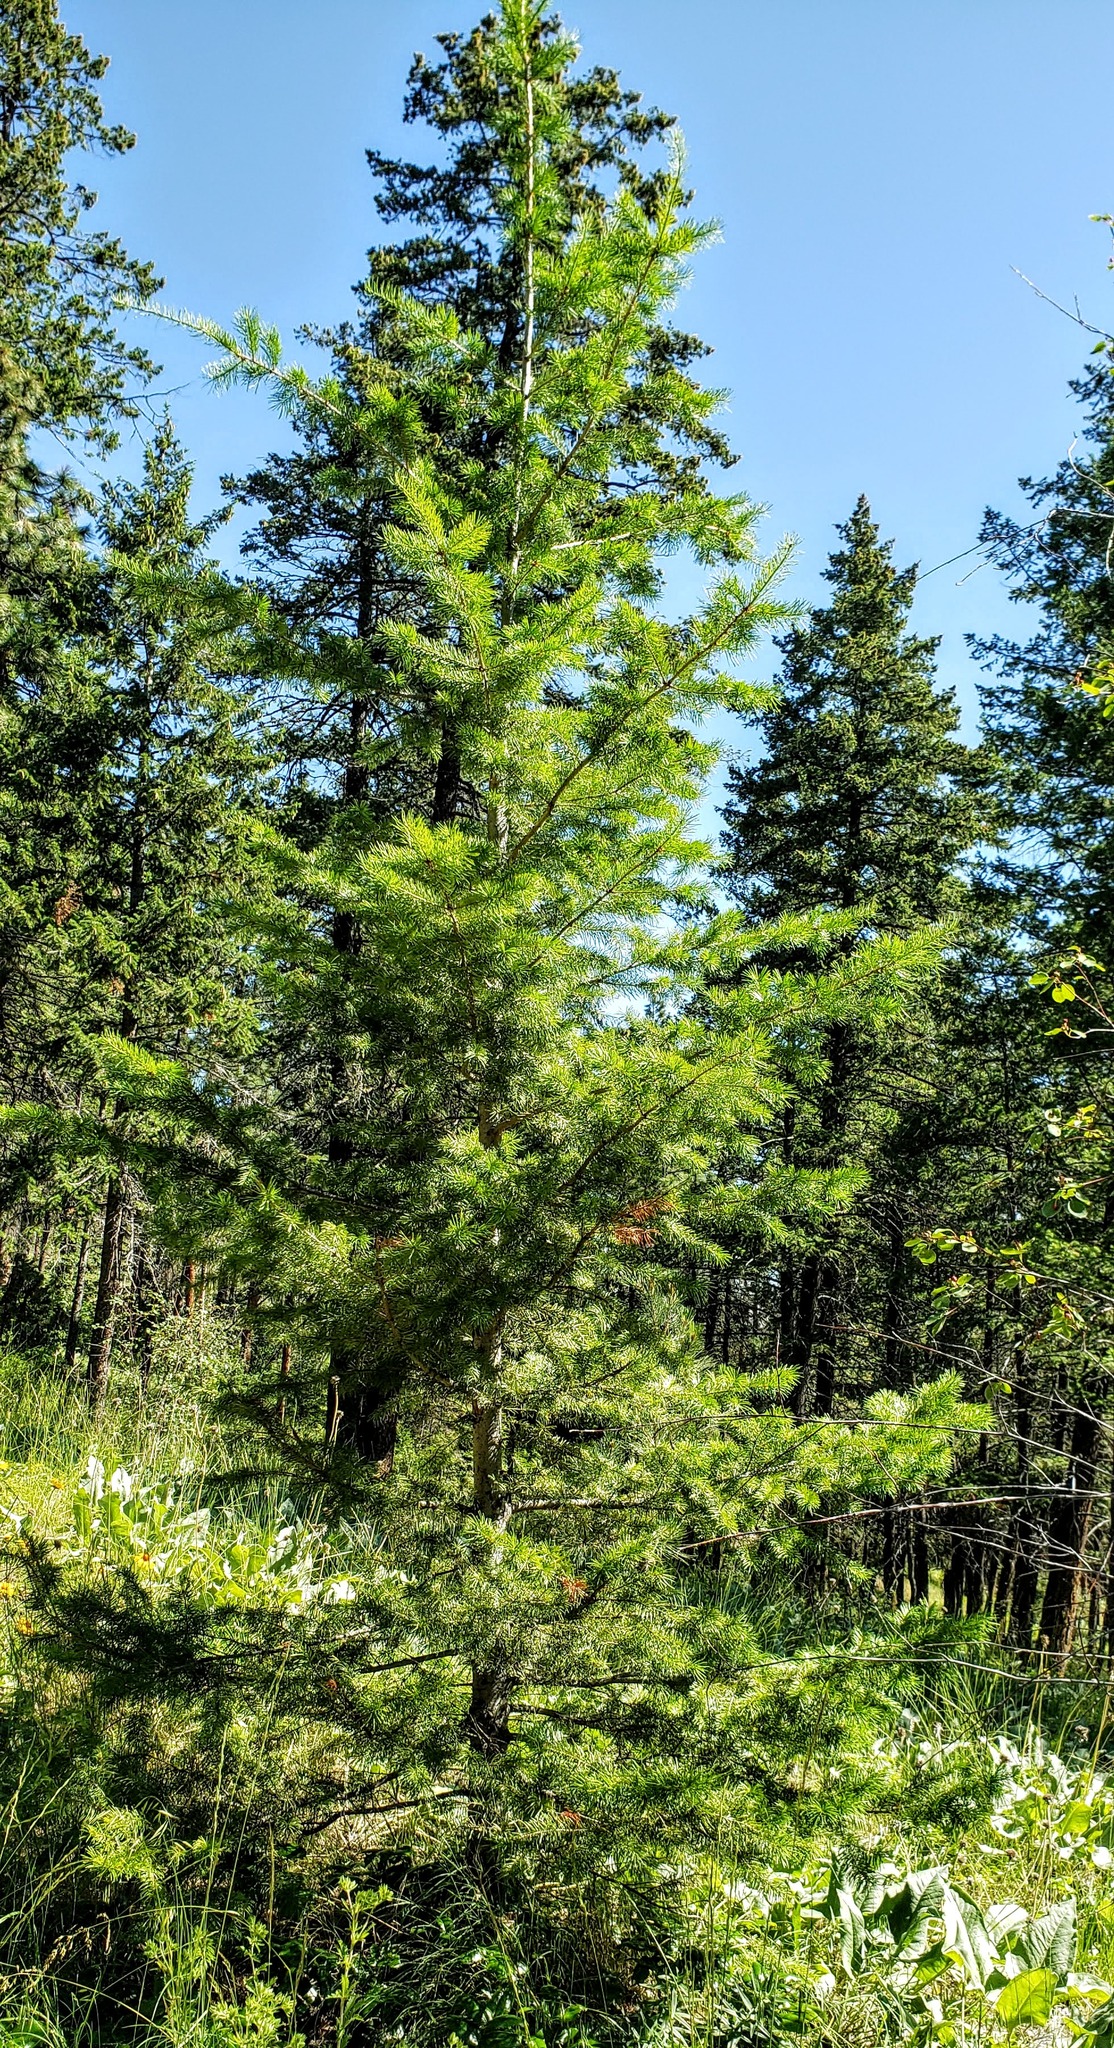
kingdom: Plantae
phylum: Tracheophyta
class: Pinopsida
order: Pinales
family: Pinaceae
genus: Pseudotsuga
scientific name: Pseudotsuga menziesii
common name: Douglas fir
